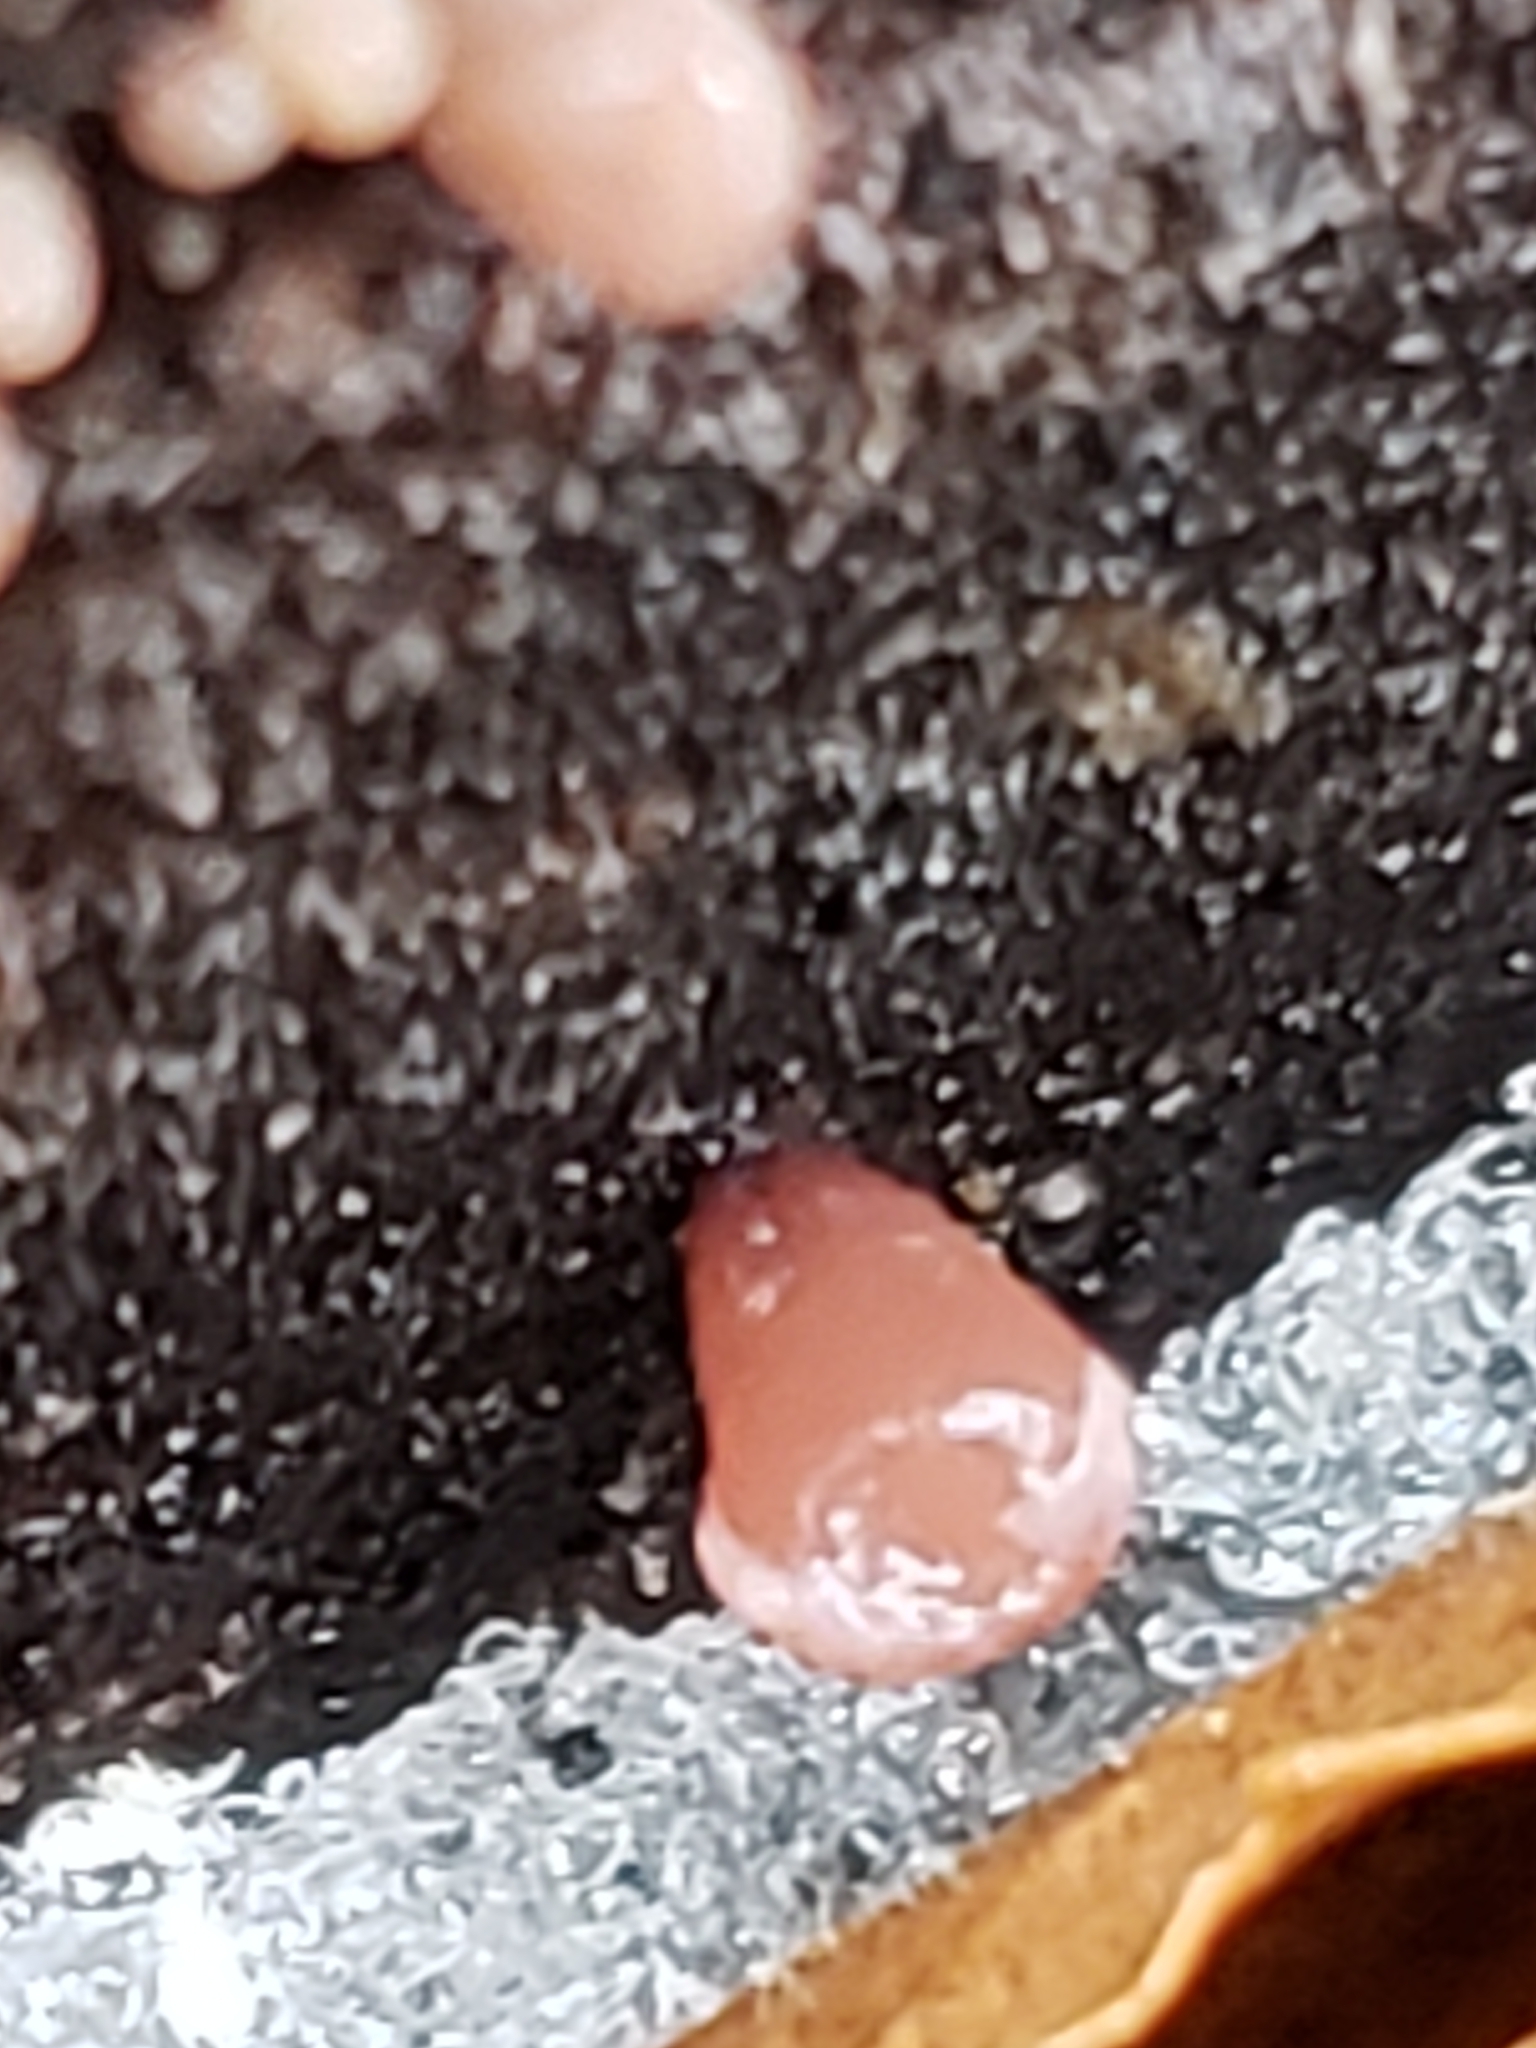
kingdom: Fungi
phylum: Ascomycota
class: Leotiomycetes
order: Helotiales
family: Gelatinodiscaceae
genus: Ascocoryne
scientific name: Ascocoryne sarcoides
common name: Purple jellydisc
